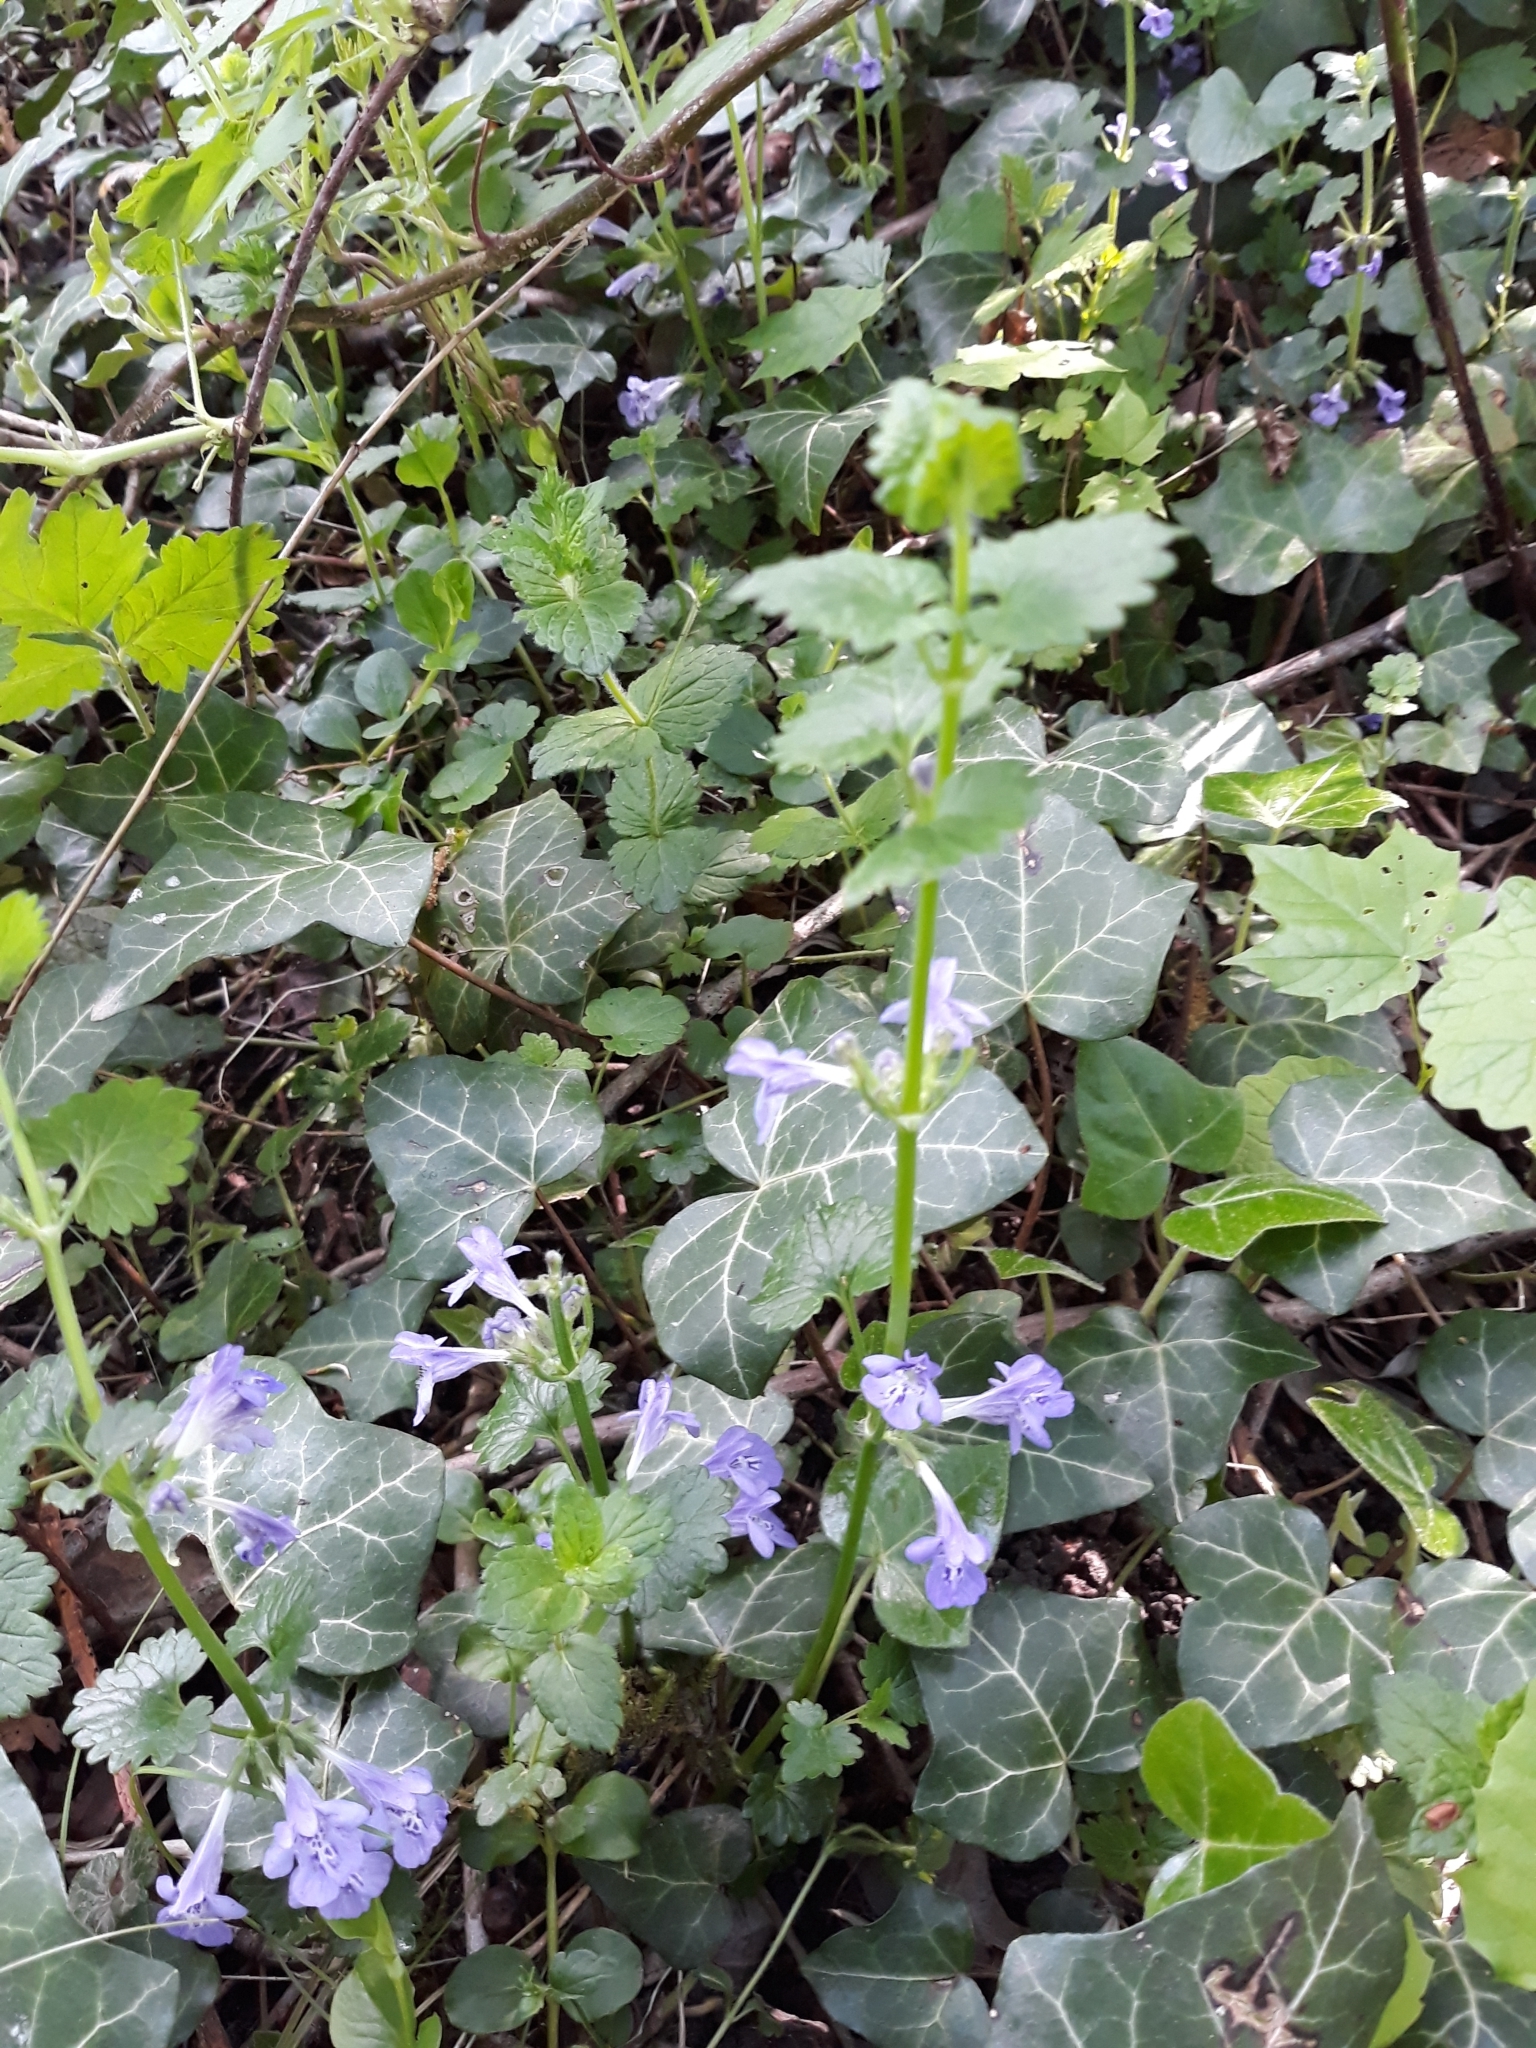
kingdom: Plantae
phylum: Tracheophyta
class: Magnoliopsida
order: Lamiales
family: Lamiaceae
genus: Glechoma
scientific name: Glechoma hederacea
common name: Ground ivy
